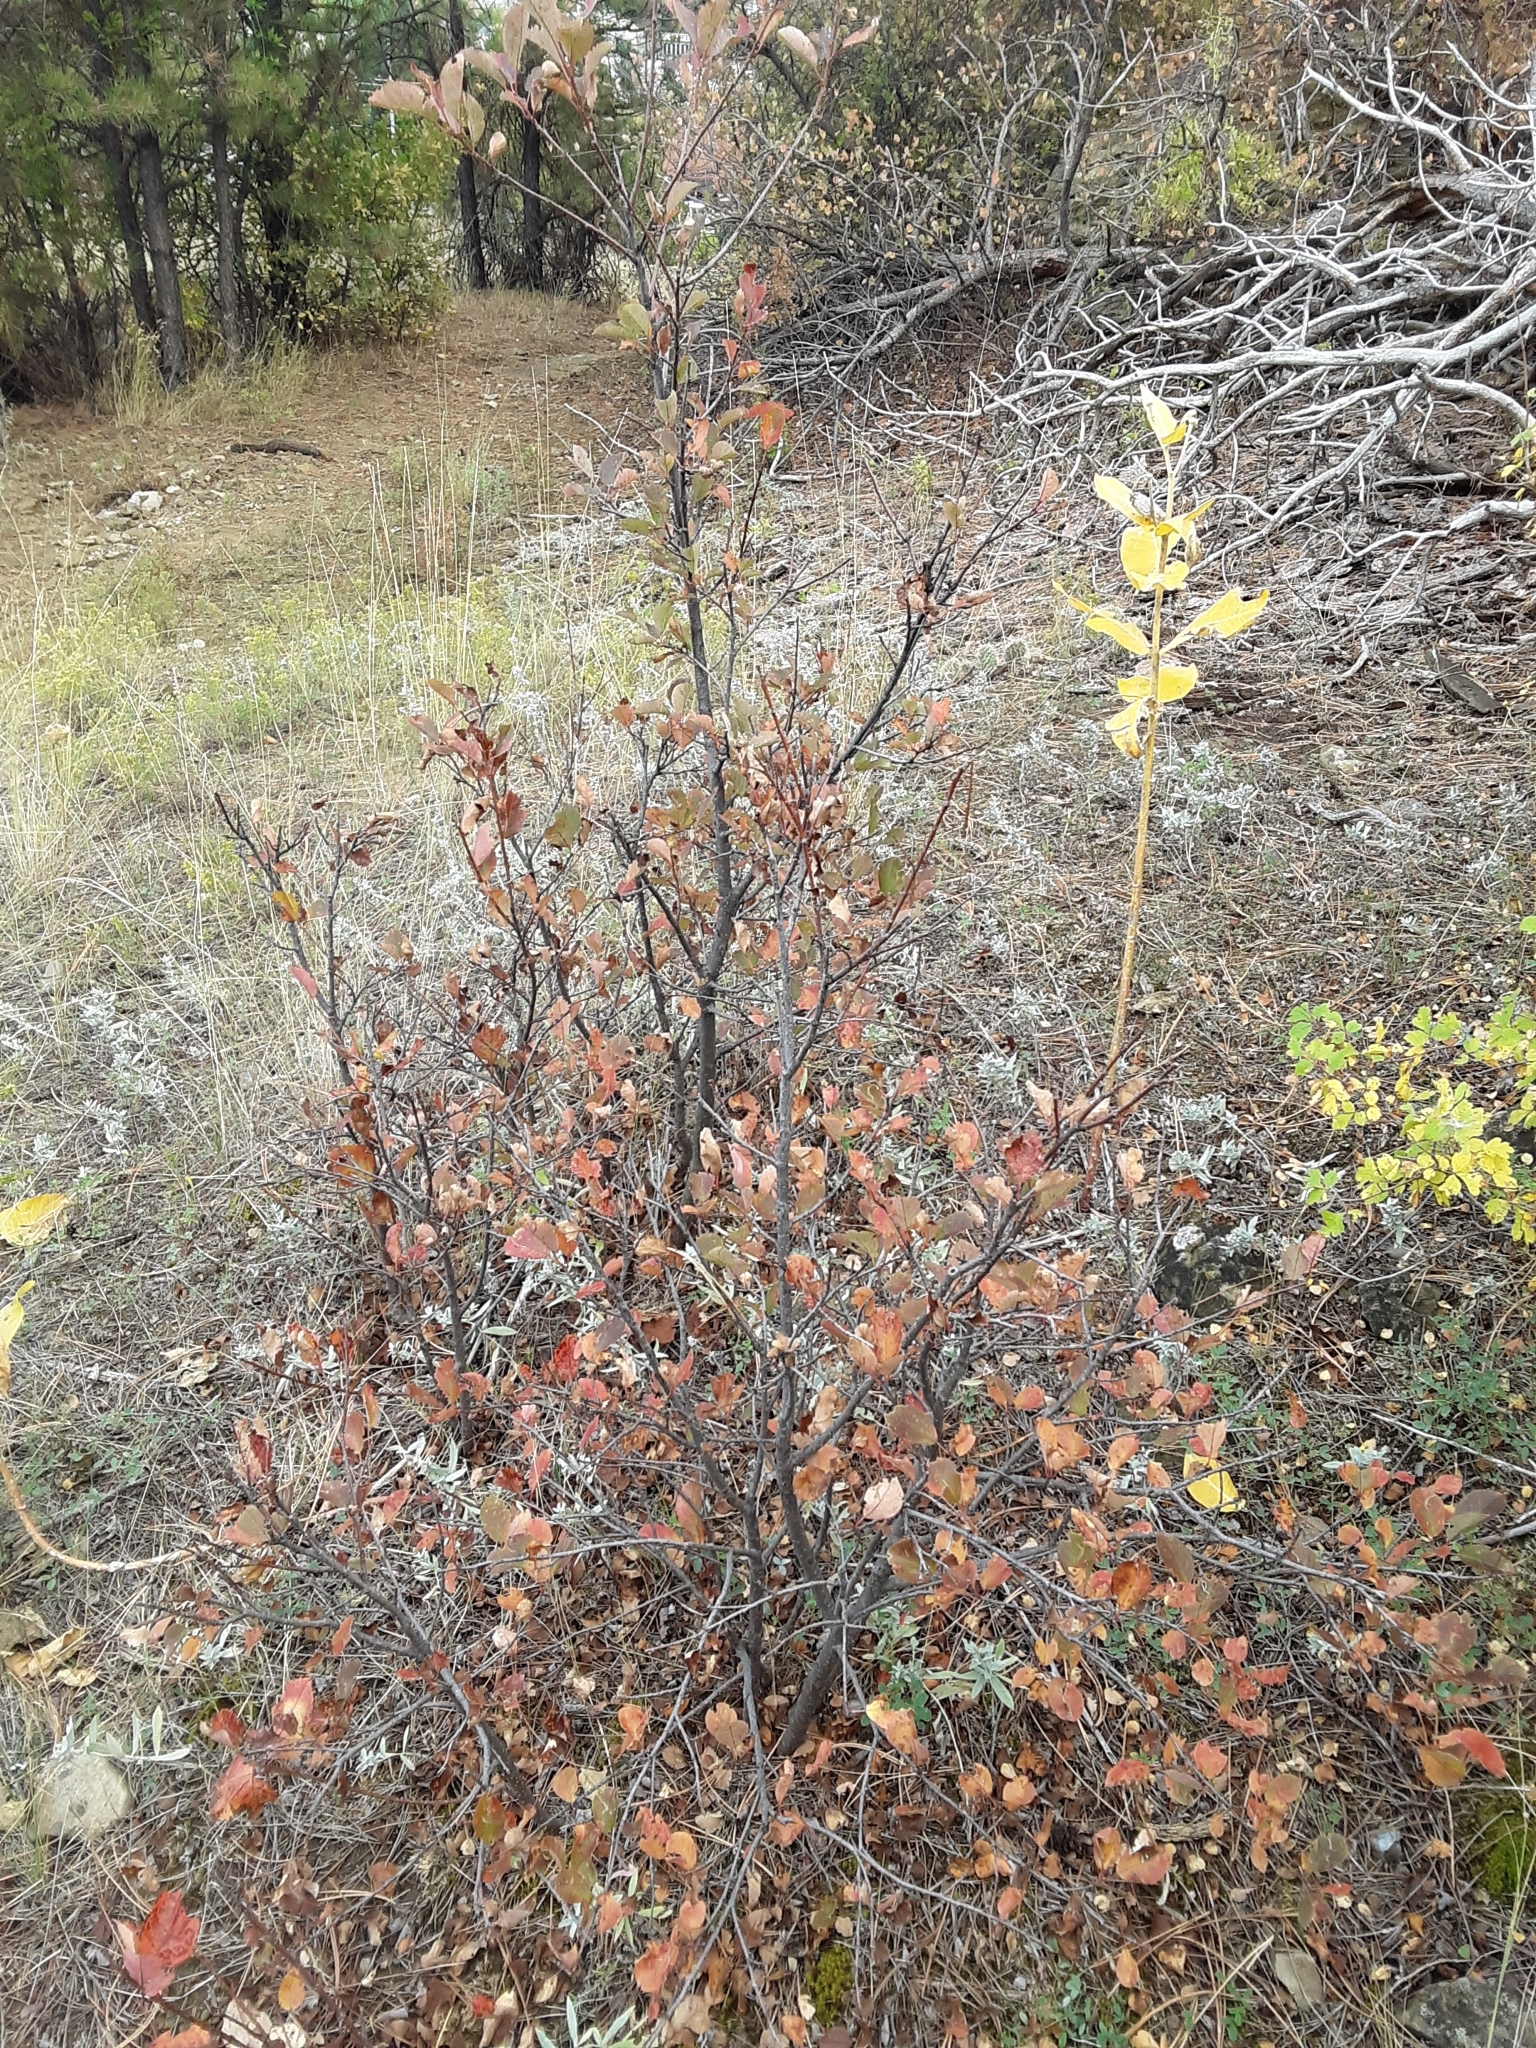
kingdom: Plantae
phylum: Tracheophyta
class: Magnoliopsida
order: Rosales
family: Rosaceae
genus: Prunus
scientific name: Prunus virginiana
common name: Chokecherry
